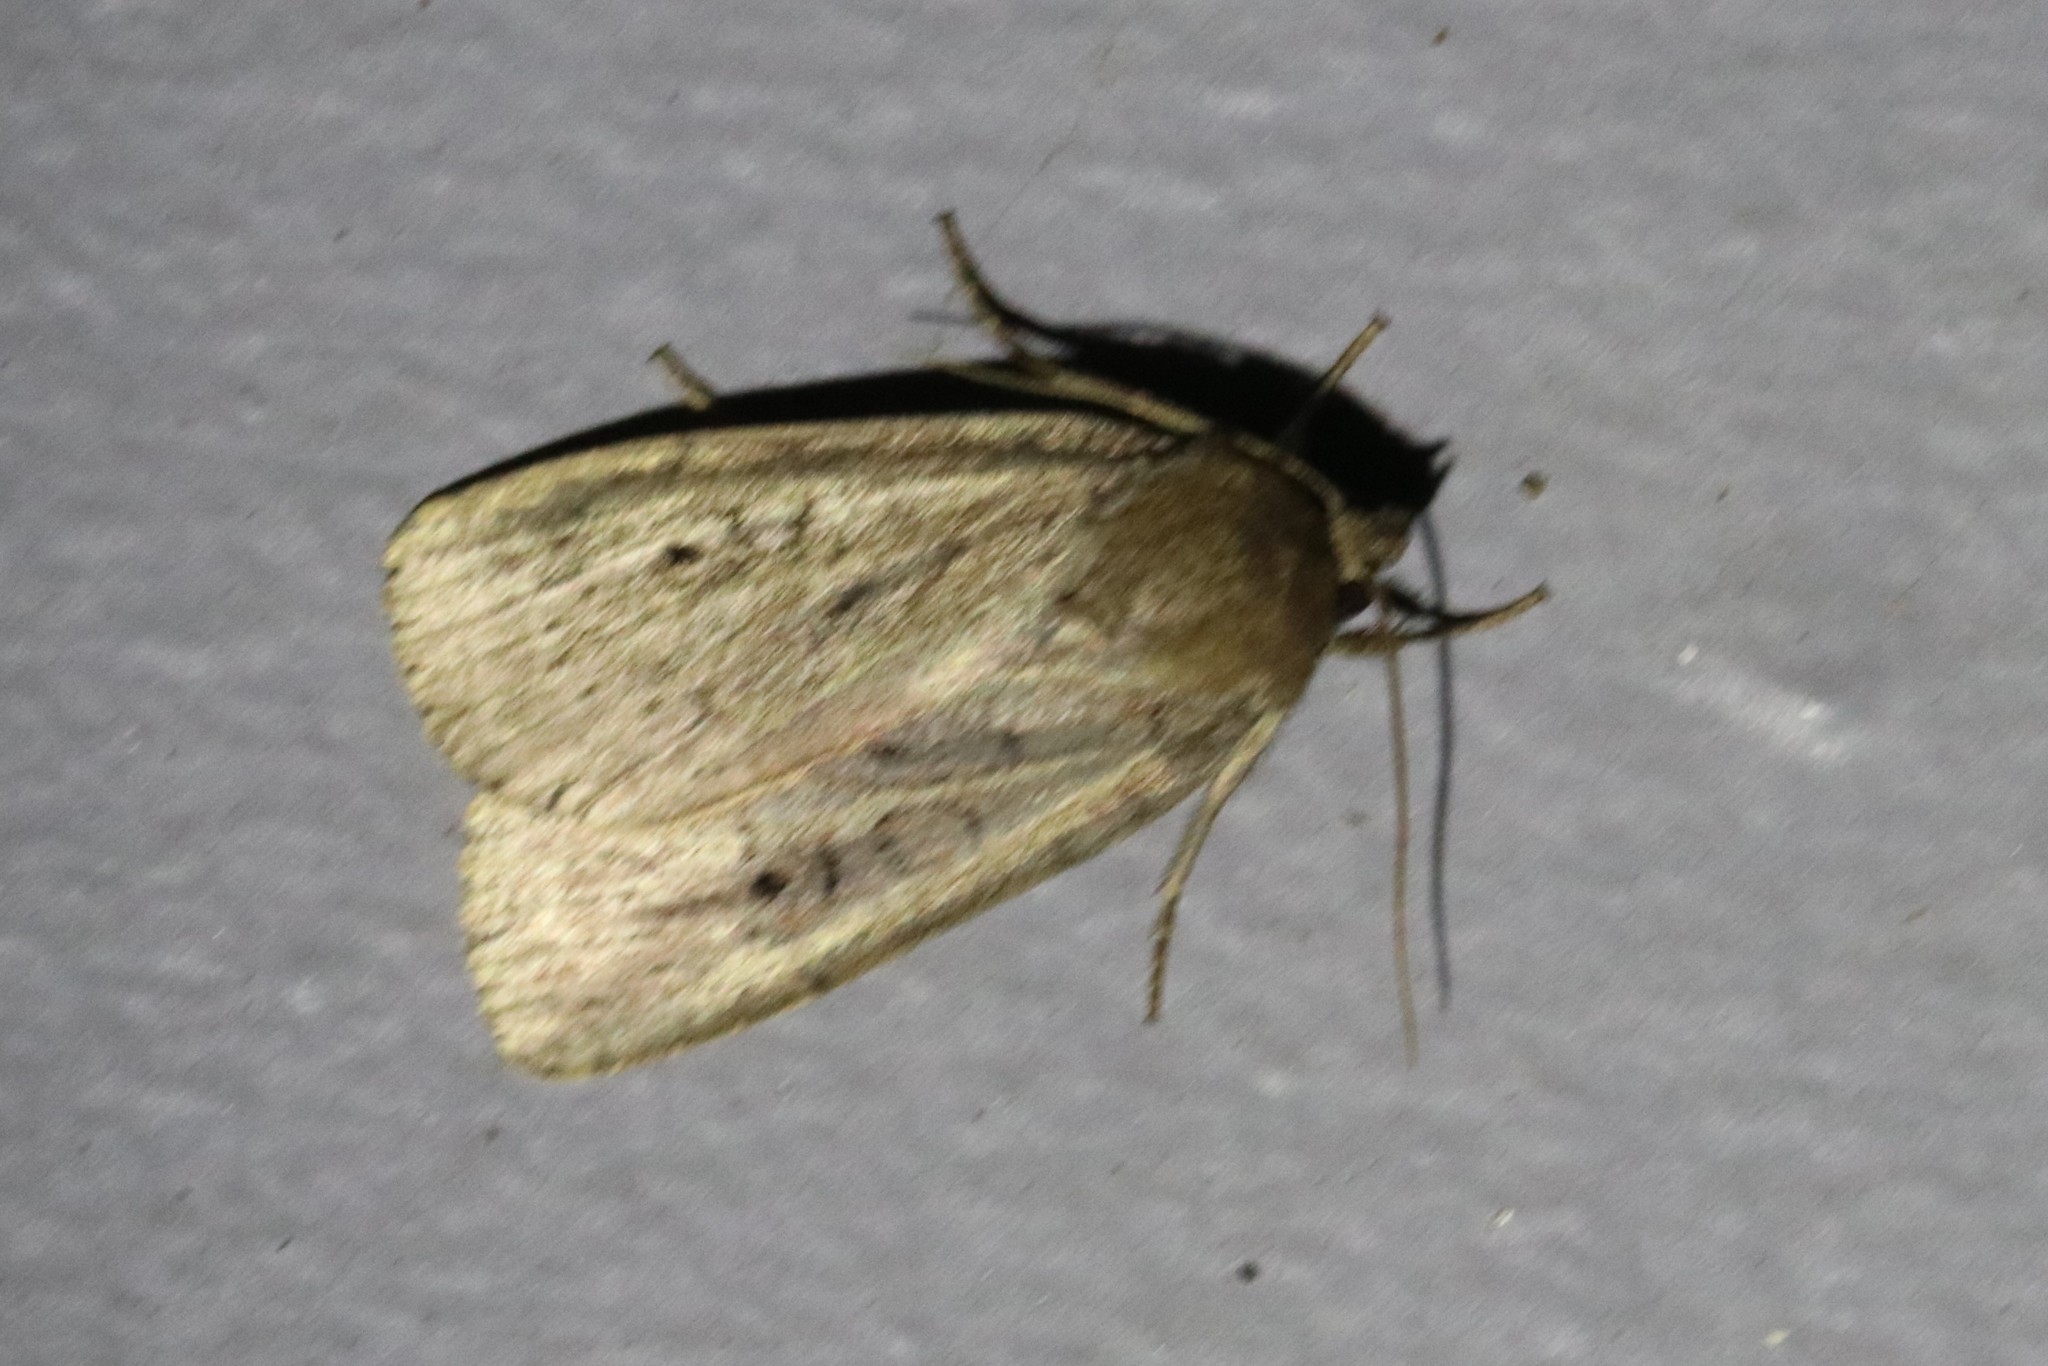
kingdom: Animalia
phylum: Arthropoda
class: Insecta
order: Lepidoptera
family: Noctuidae
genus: Graphiphora
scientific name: Graphiphora augur
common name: Double dart
